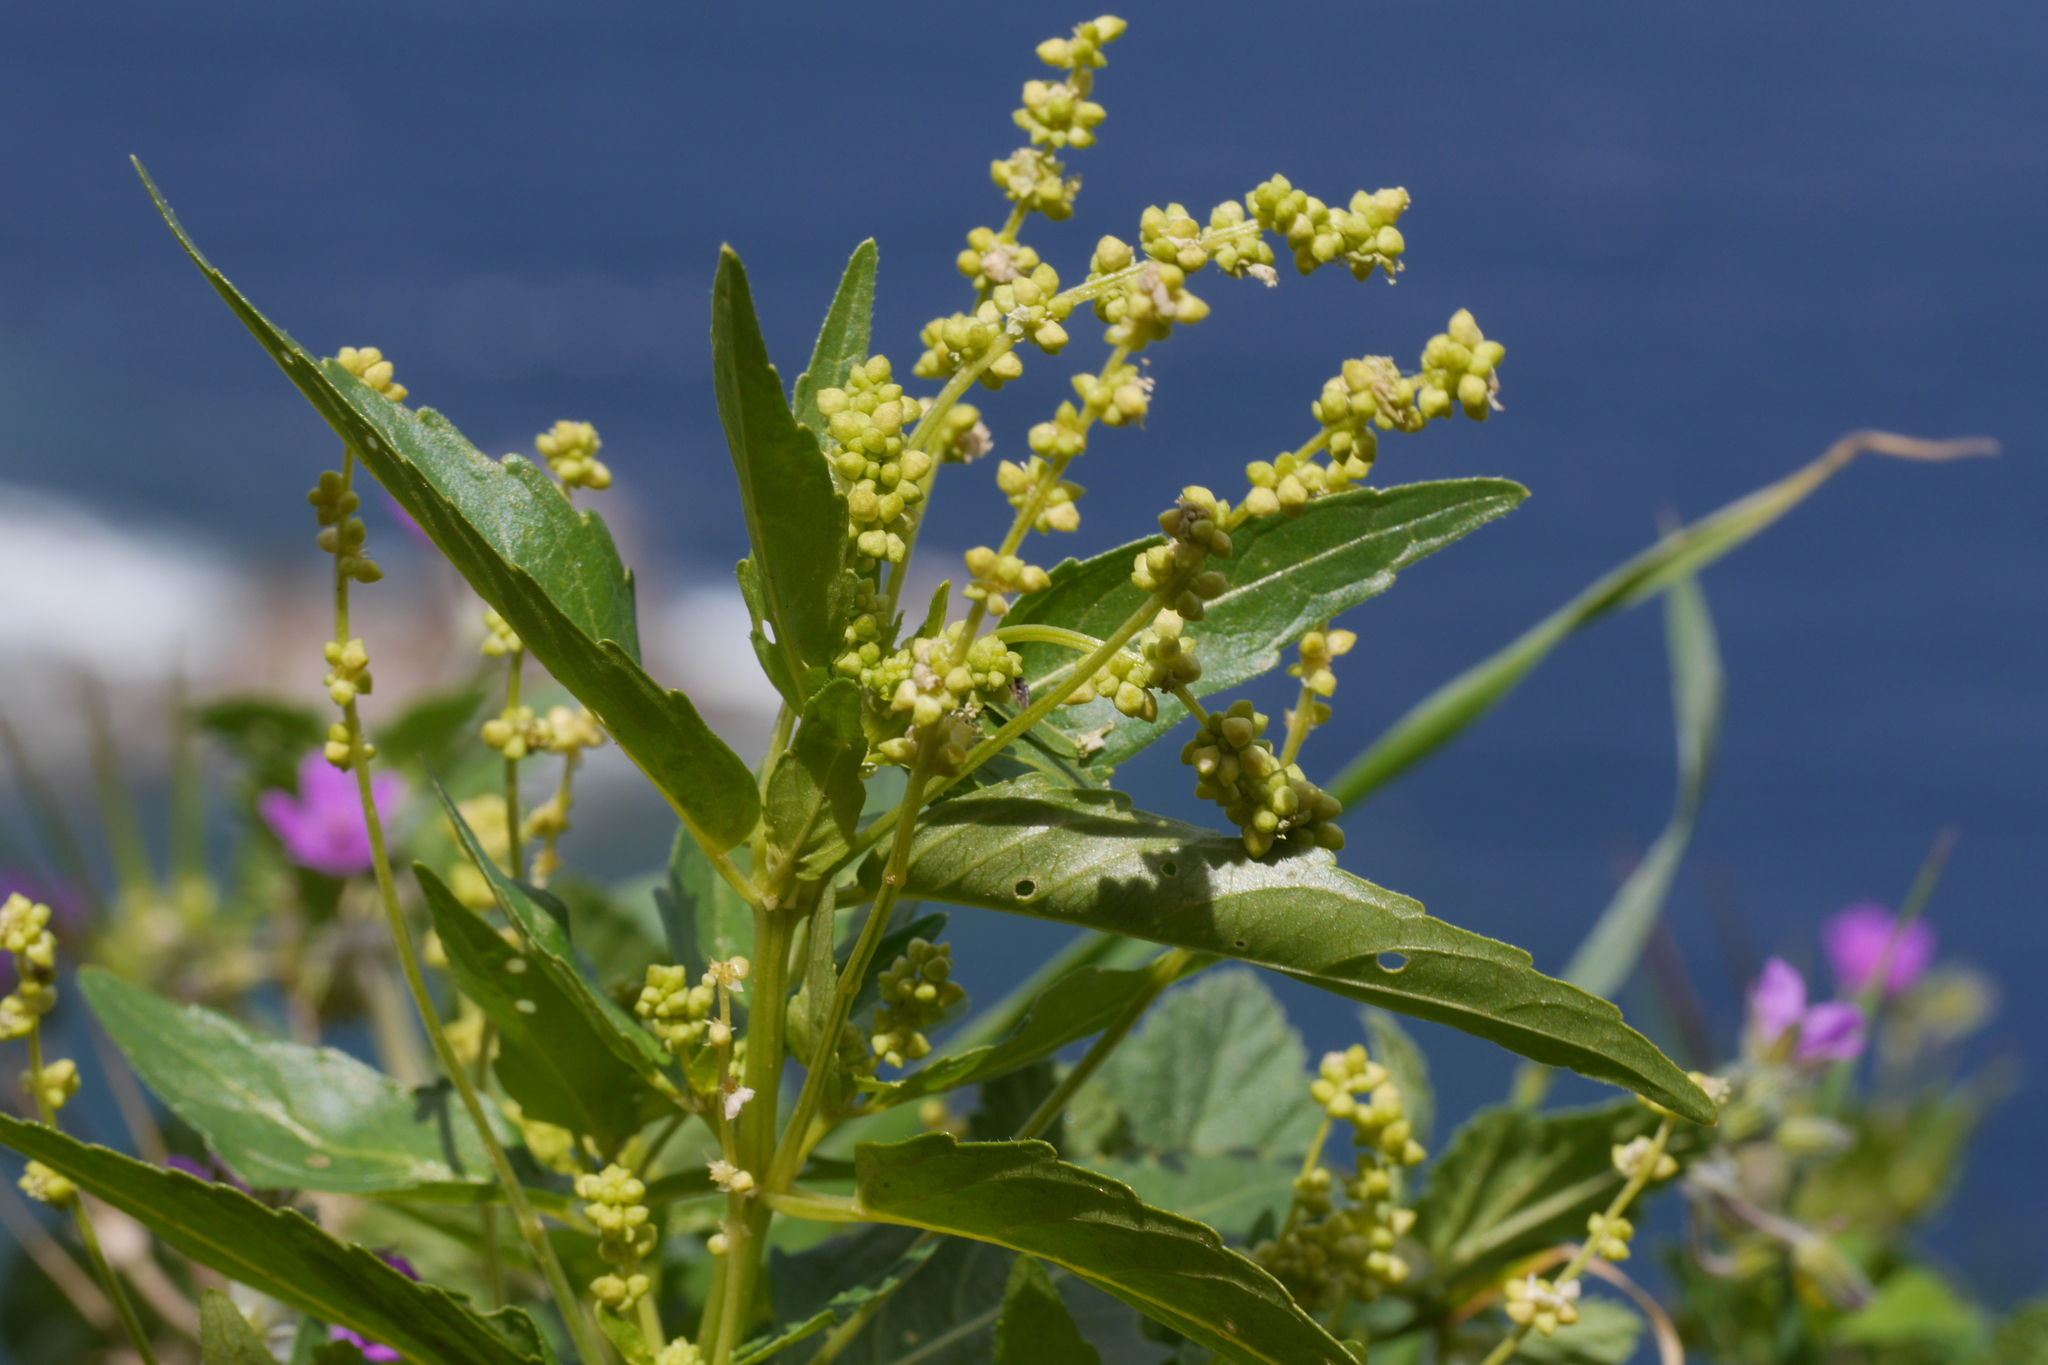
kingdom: Plantae
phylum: Tracheophyta
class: Magnoliopsida
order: Malpighiales
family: Euphorbiaceae
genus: Mercurialis
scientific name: Mercurialis annua
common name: Annual mercury
